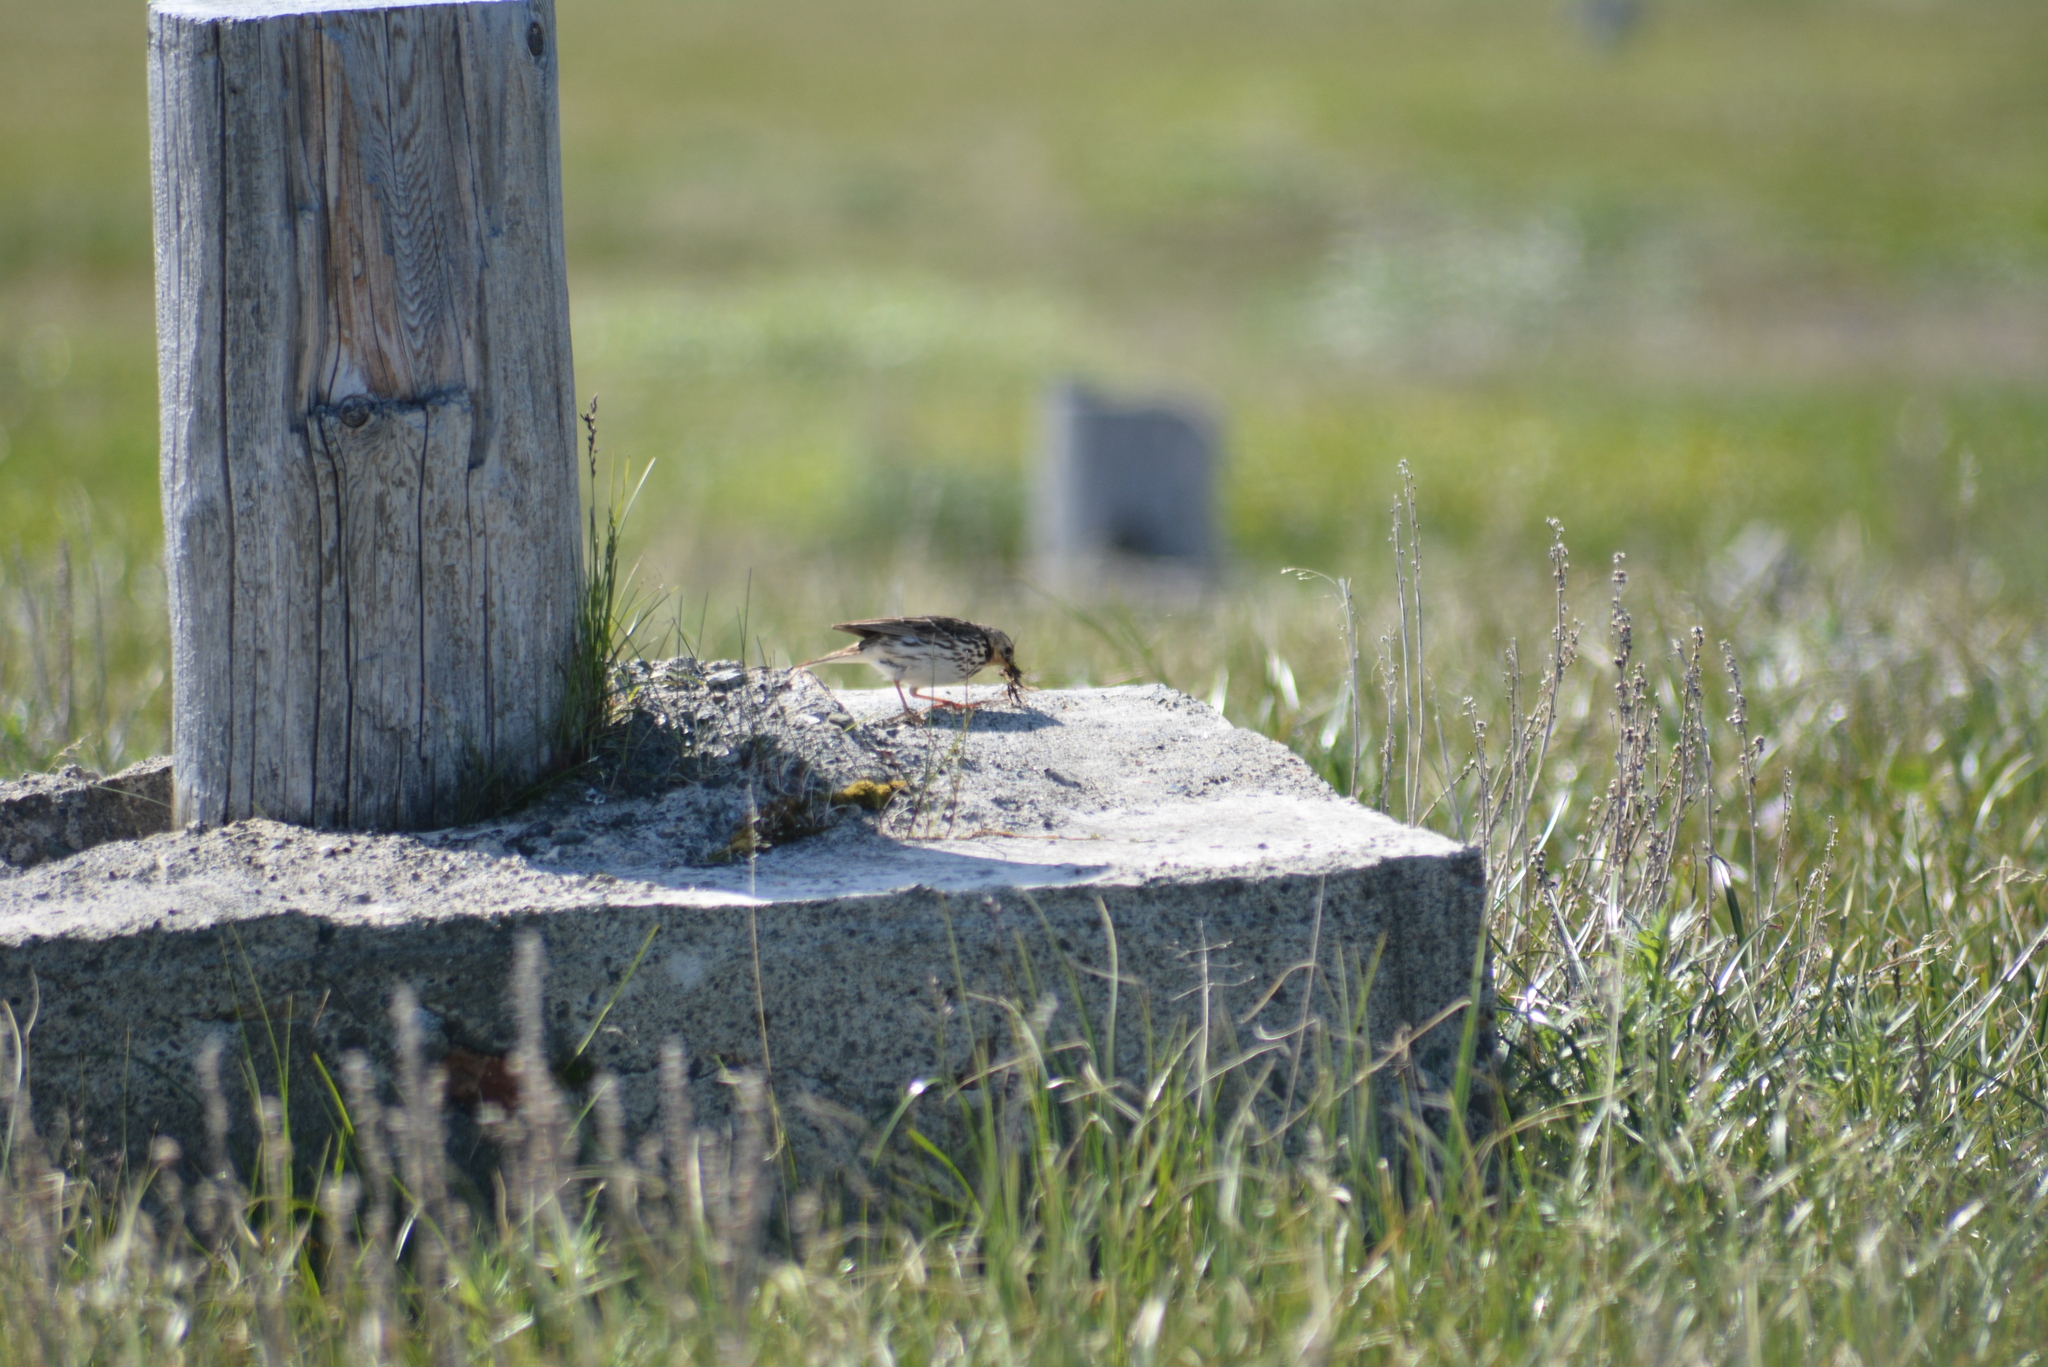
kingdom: Animalia
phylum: Chordata
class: Aves
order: Passeriformes
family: Motacillidae
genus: Anthus
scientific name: Anthus cervinus
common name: Red-throated pipit
